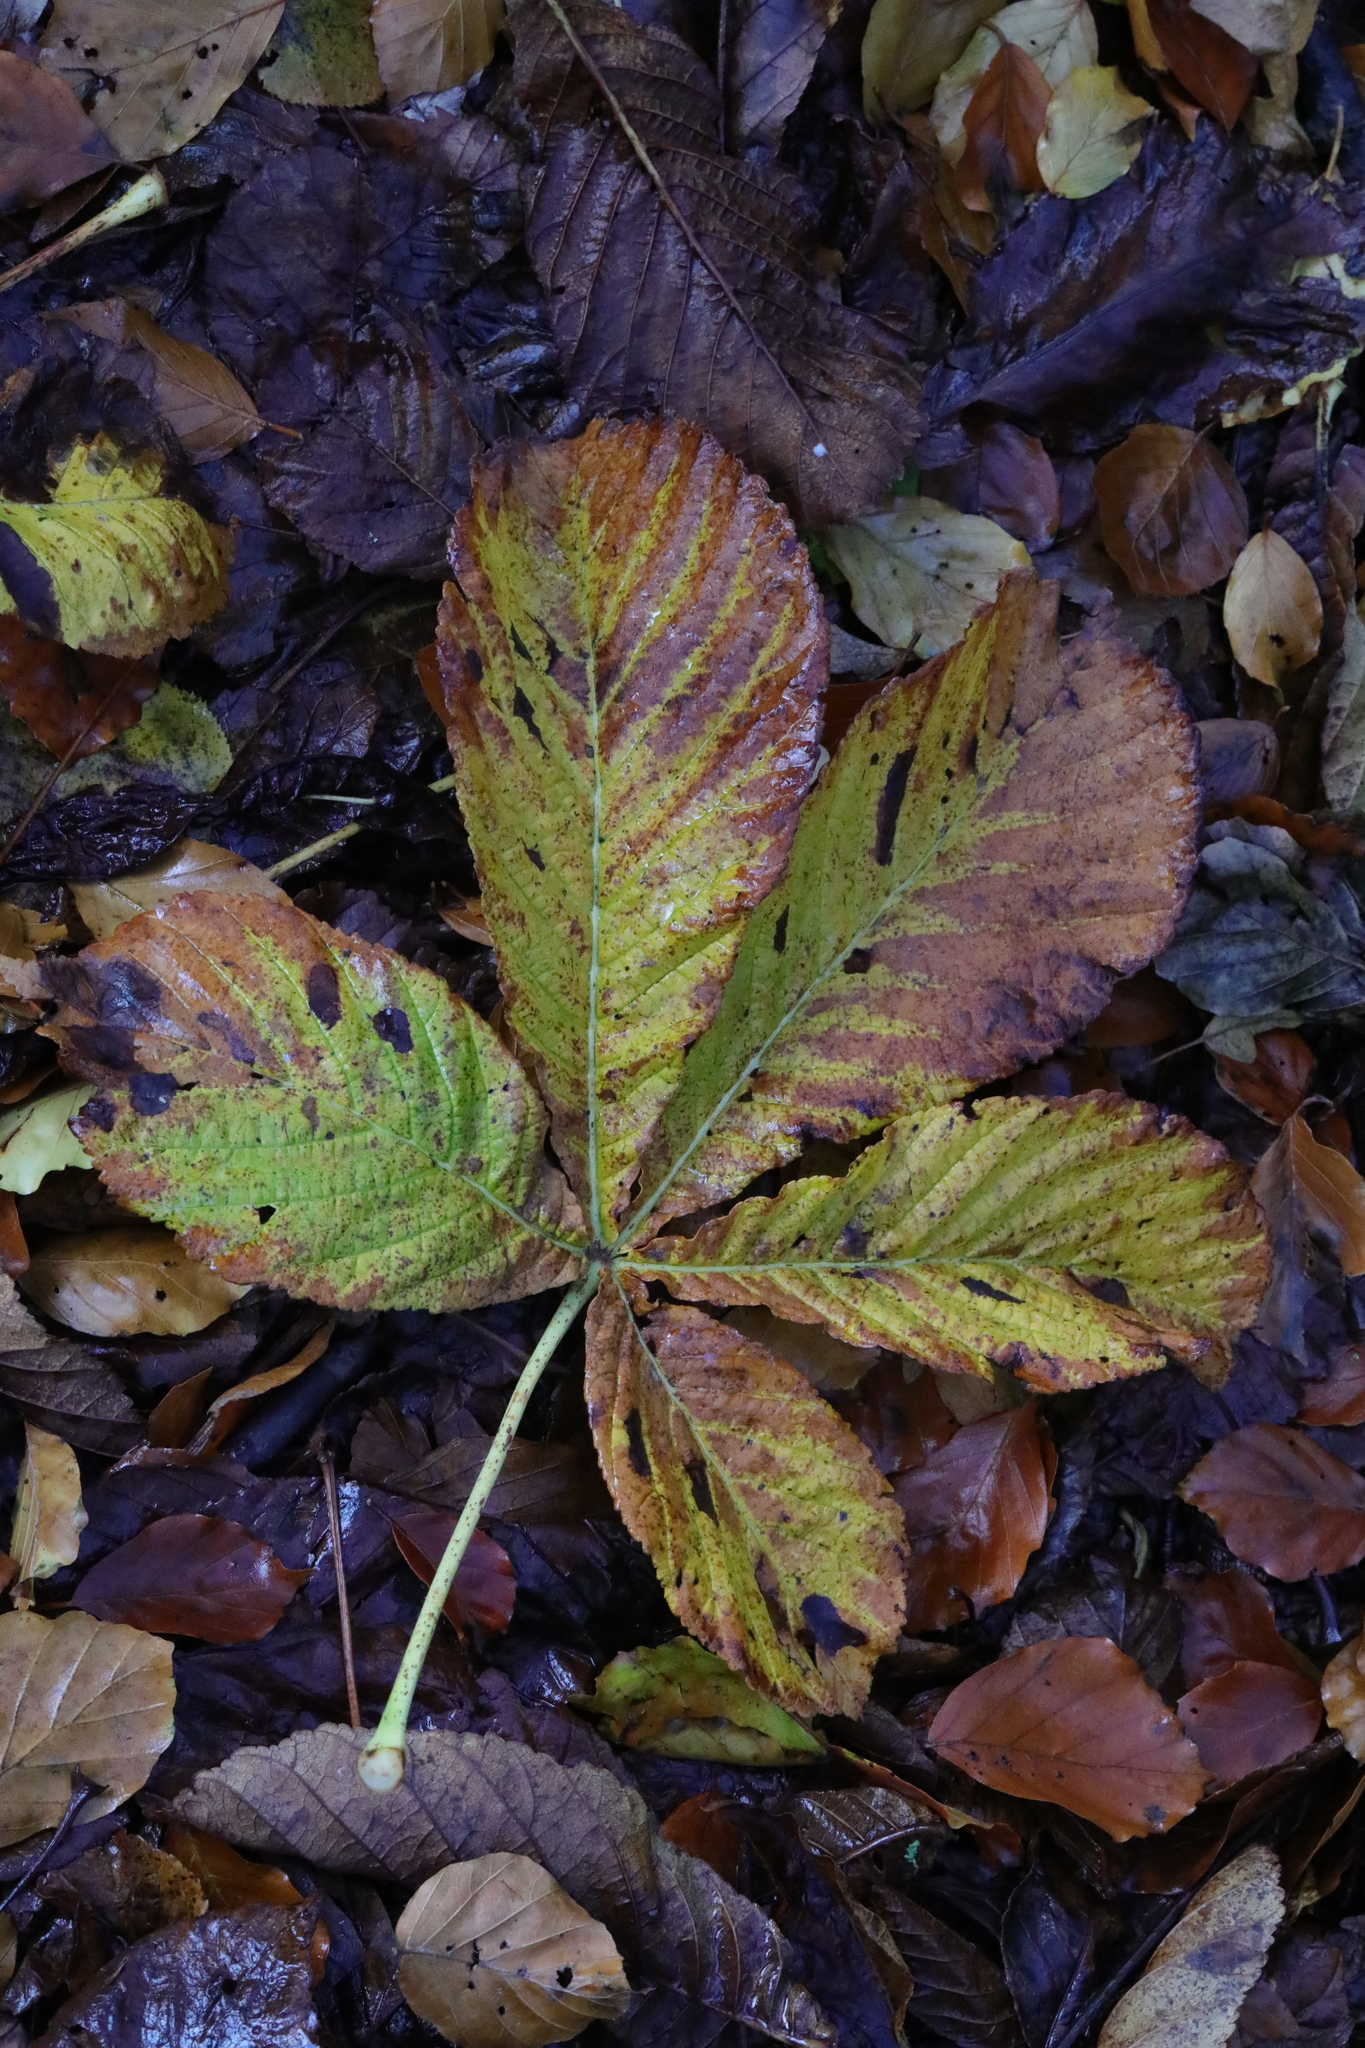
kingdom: Plantae
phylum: Tracheophyta
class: Magnoliopsida
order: Sapindales
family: Sapindaceae
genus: Aesculus
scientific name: Aesculus hippocastanum
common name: Horse-chestnut
